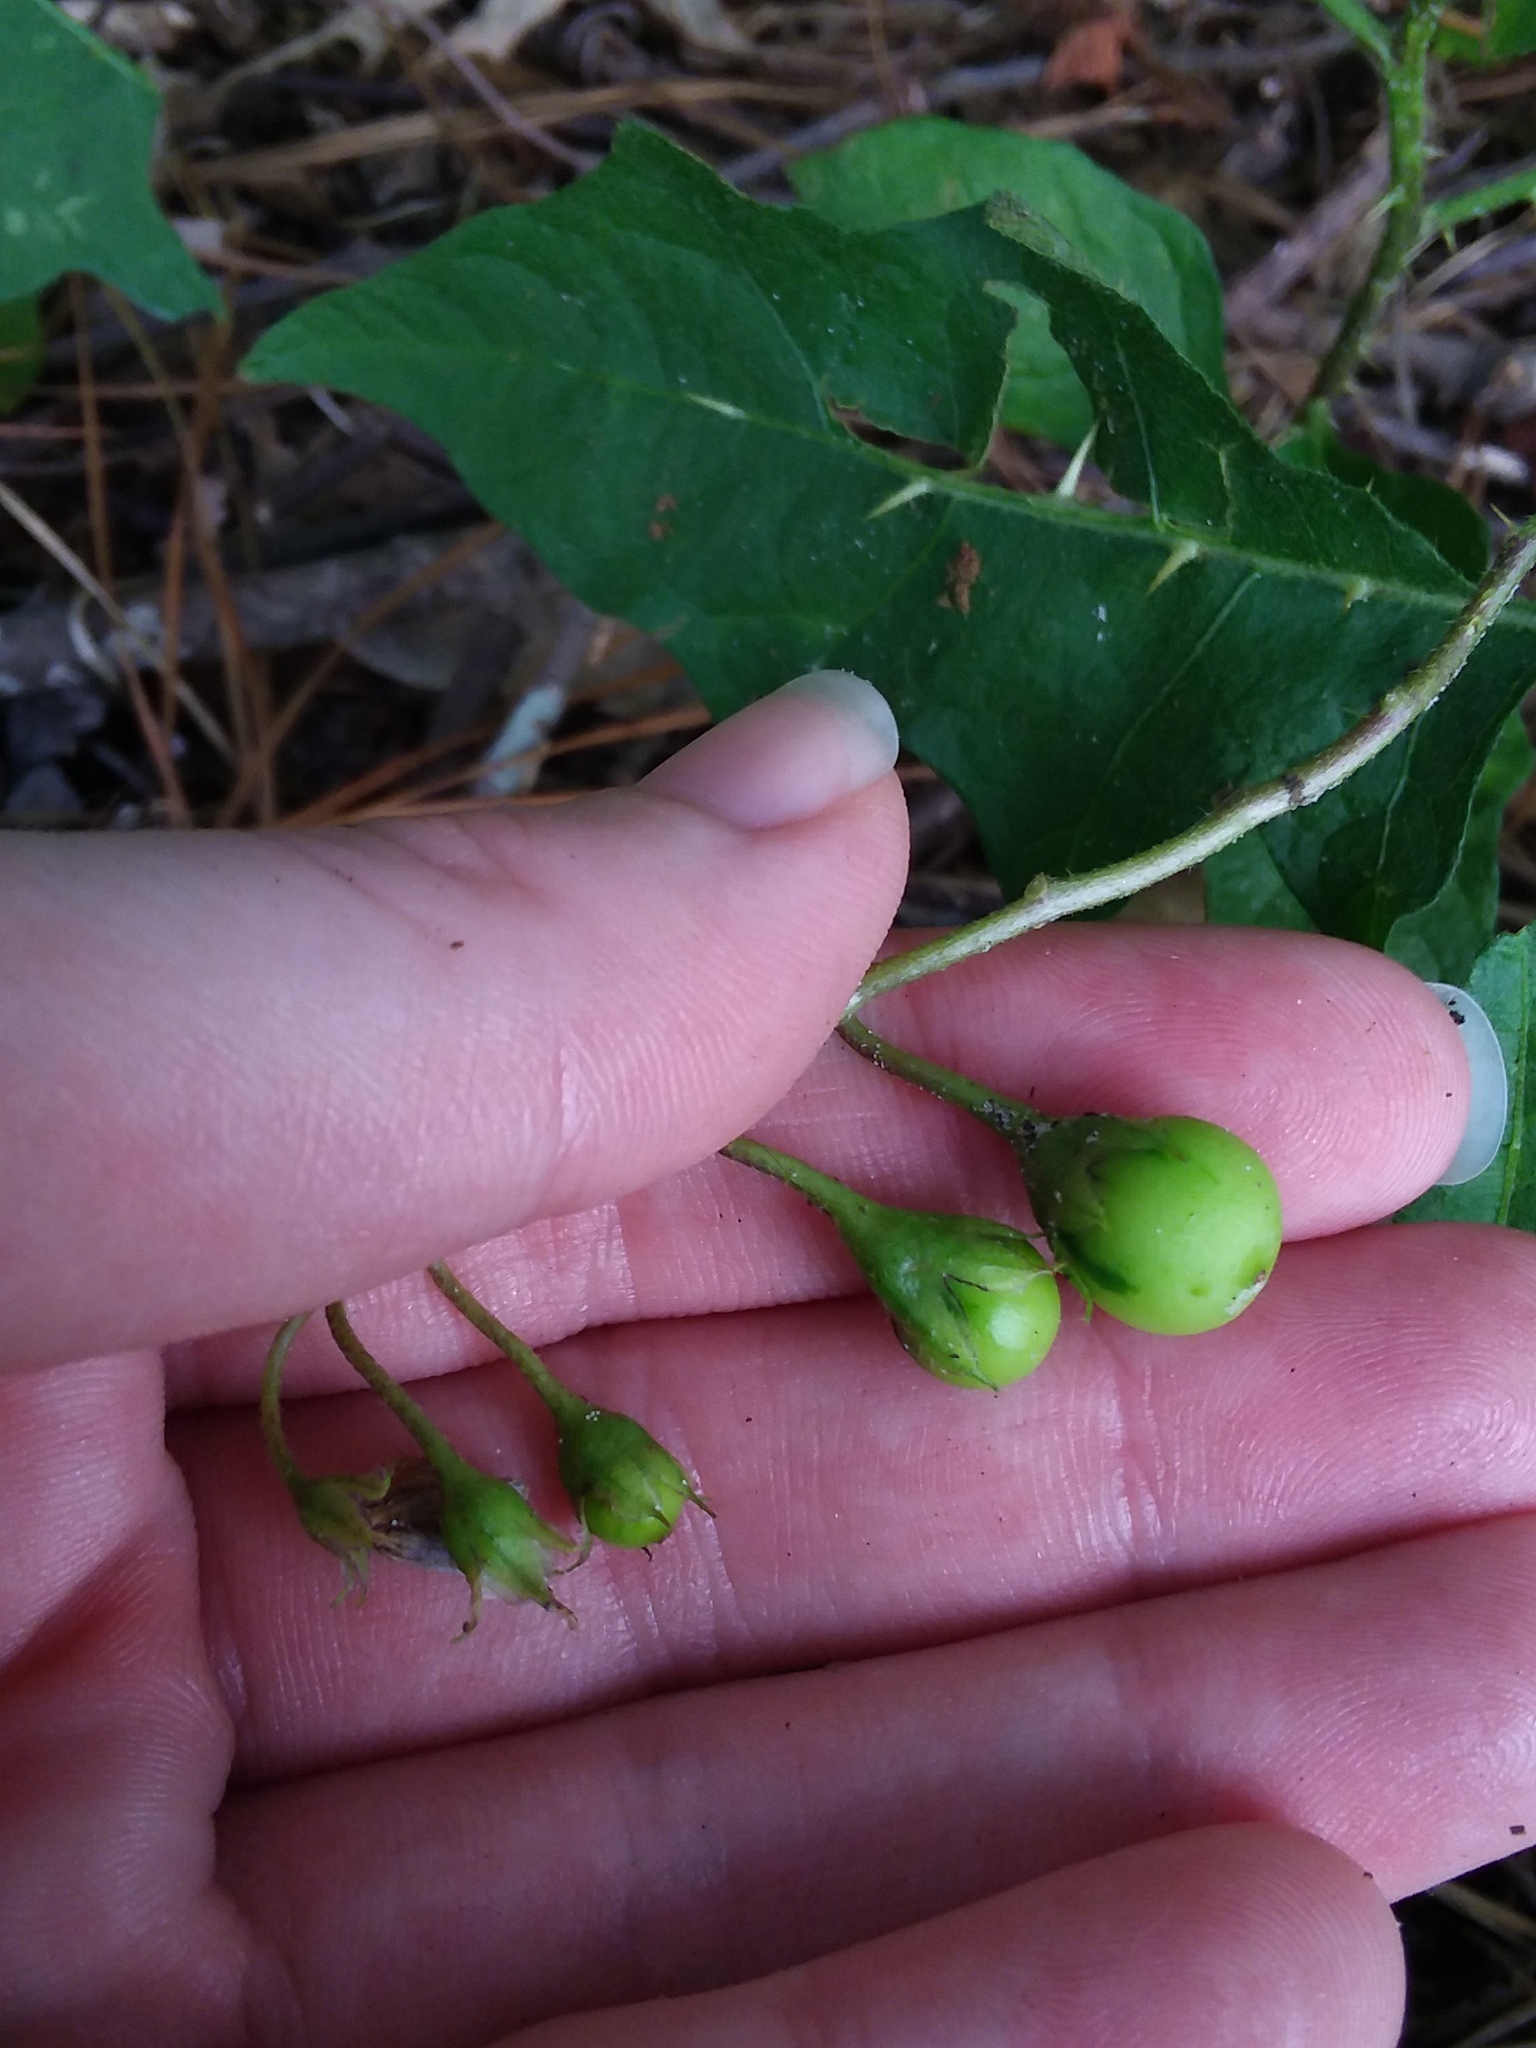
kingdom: Plantae
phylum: Tracheophyta
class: Magnoliopsida
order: Solanales
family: Solanaceae
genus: Solanum
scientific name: Solanum carolinense
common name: Horse-nettle
